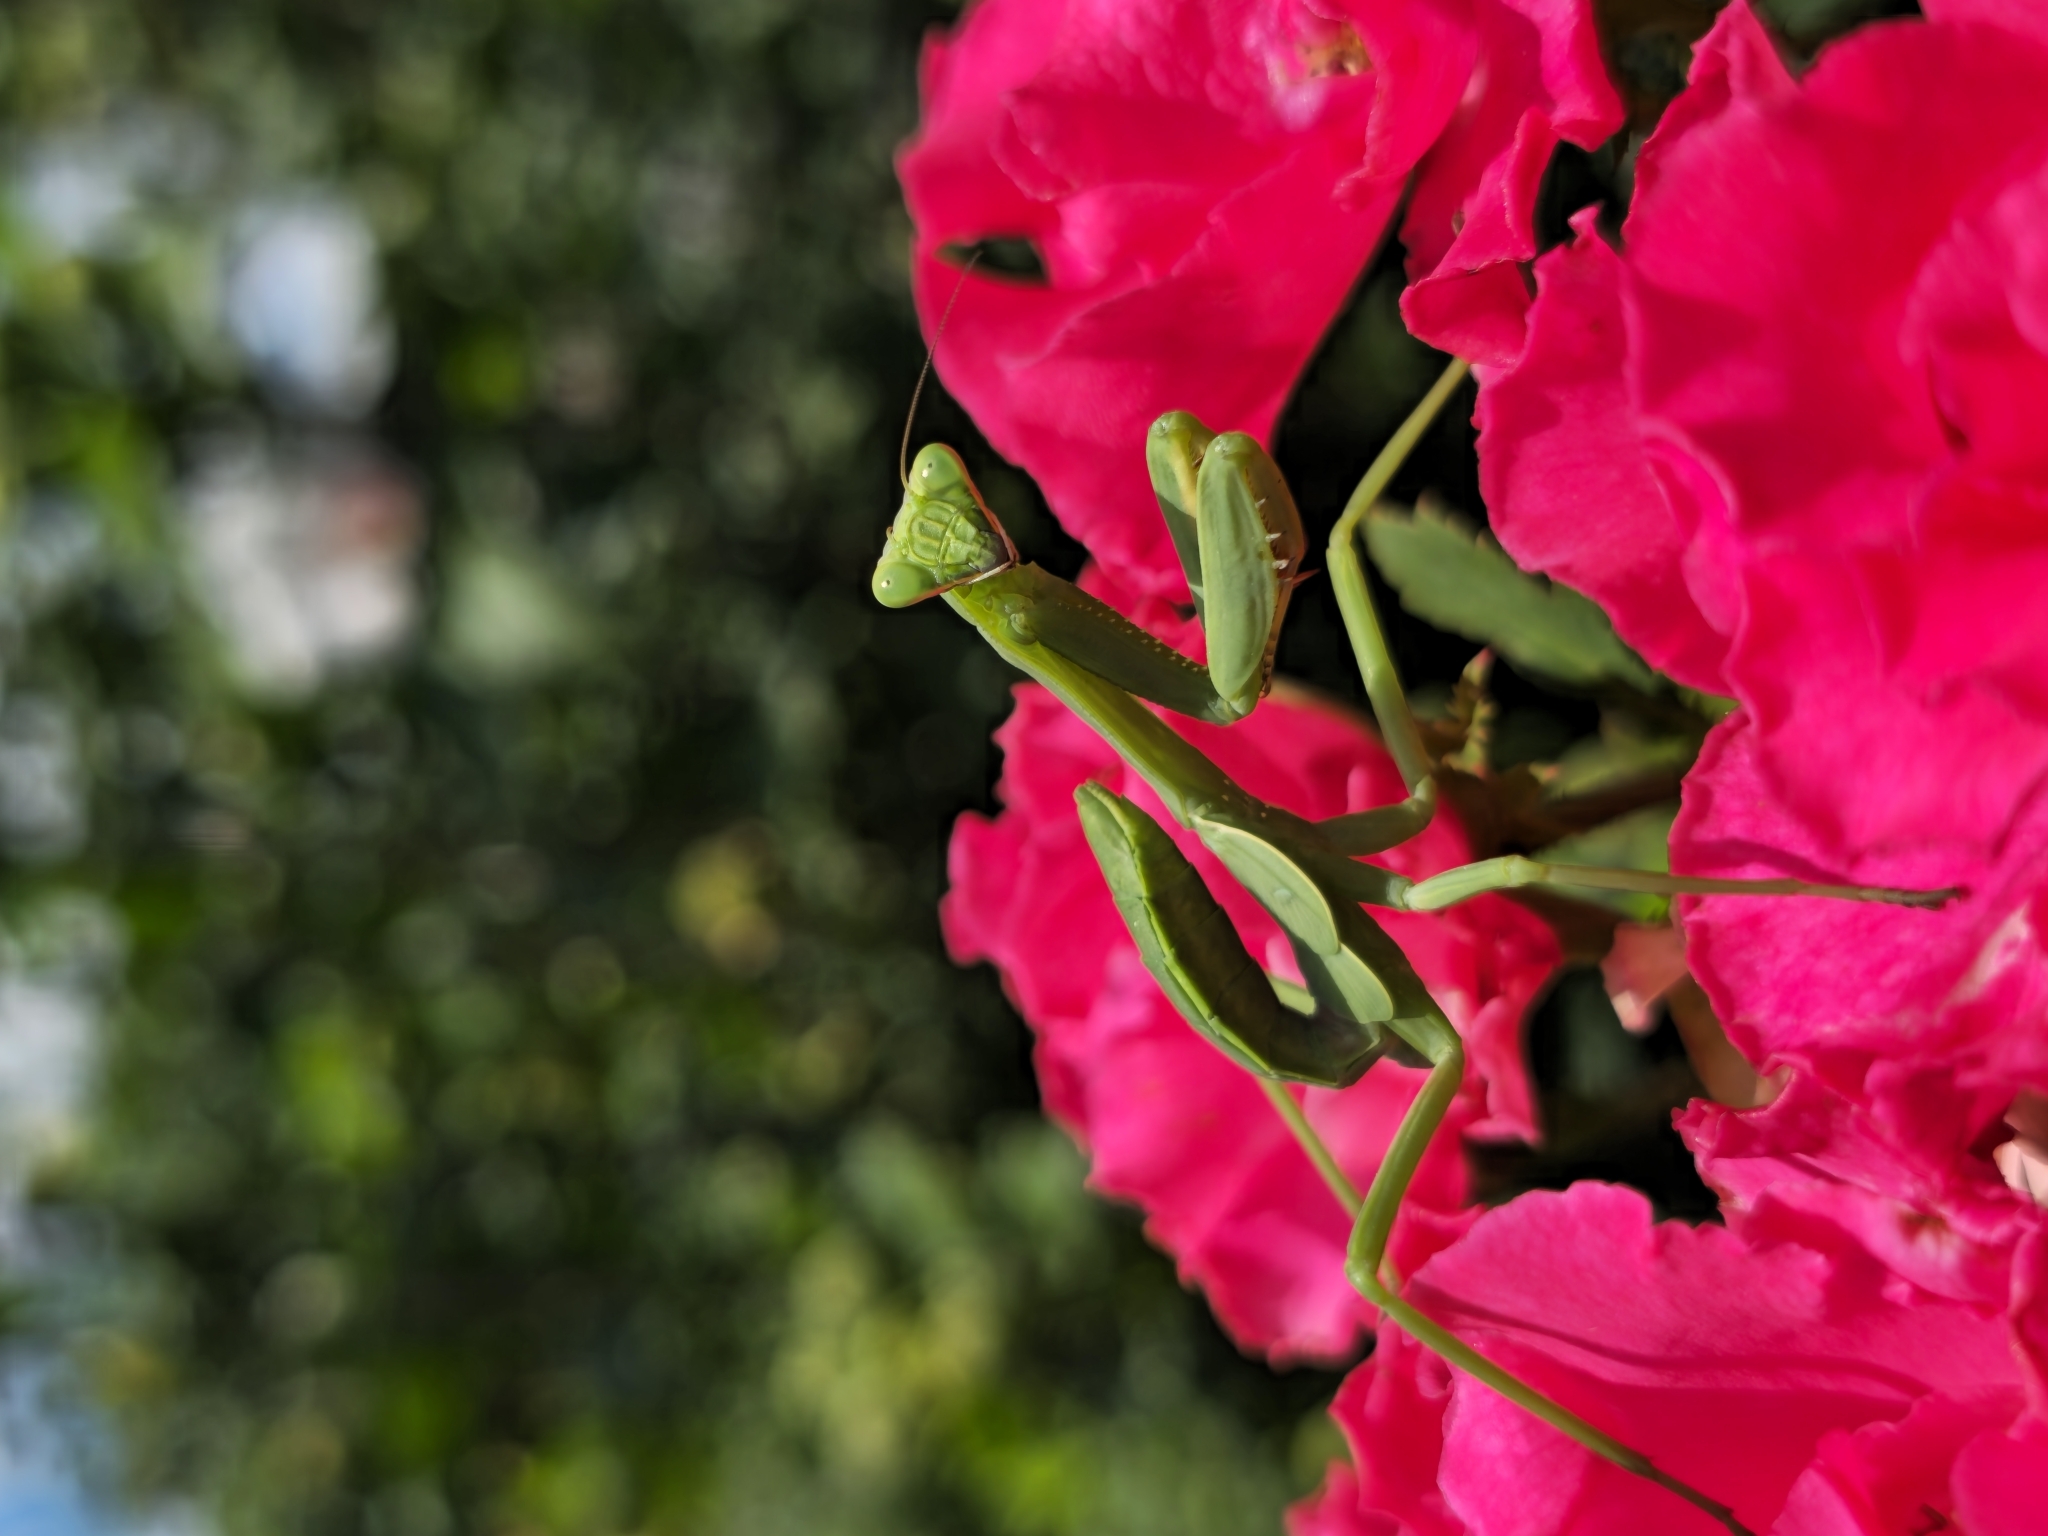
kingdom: Animalia
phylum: Arthropoda
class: Insecta
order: Mantodea
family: Mantidae
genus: Stagmatoptera
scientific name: Stagmatoptera hyaloptera
